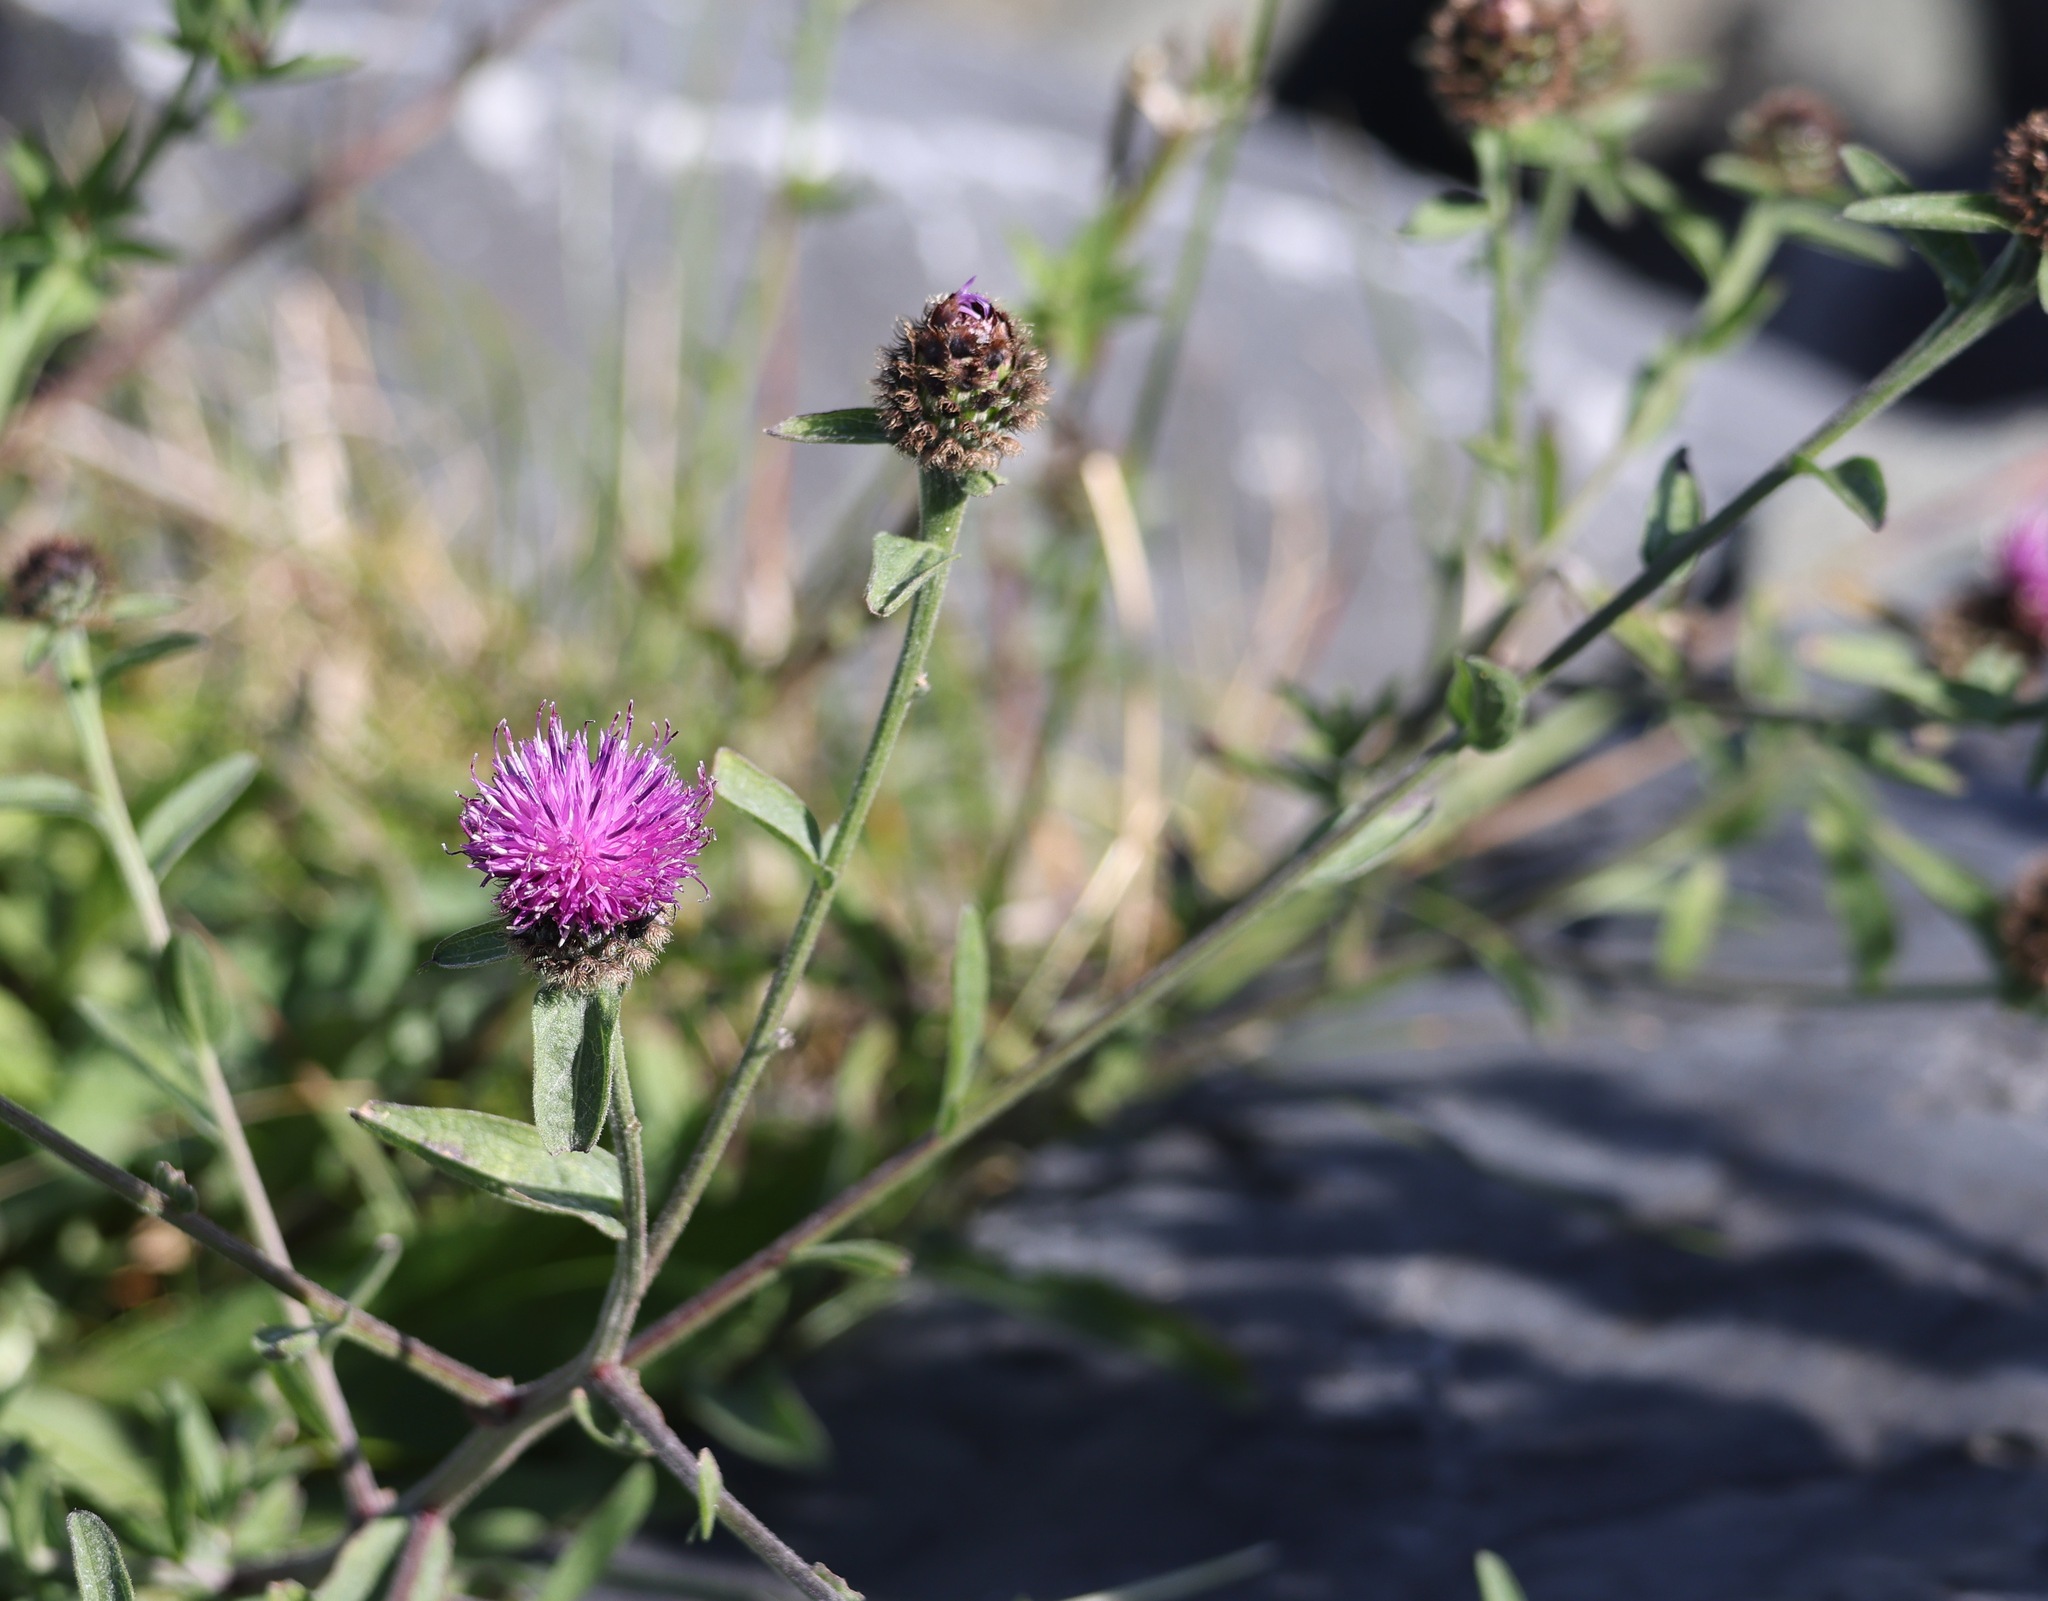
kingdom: Plantae
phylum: Tracheophyta
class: Magnoliopsida
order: Asterales
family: Asteraceae
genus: Centaurea
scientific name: Centaurea nigra
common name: Lesser knapweed
